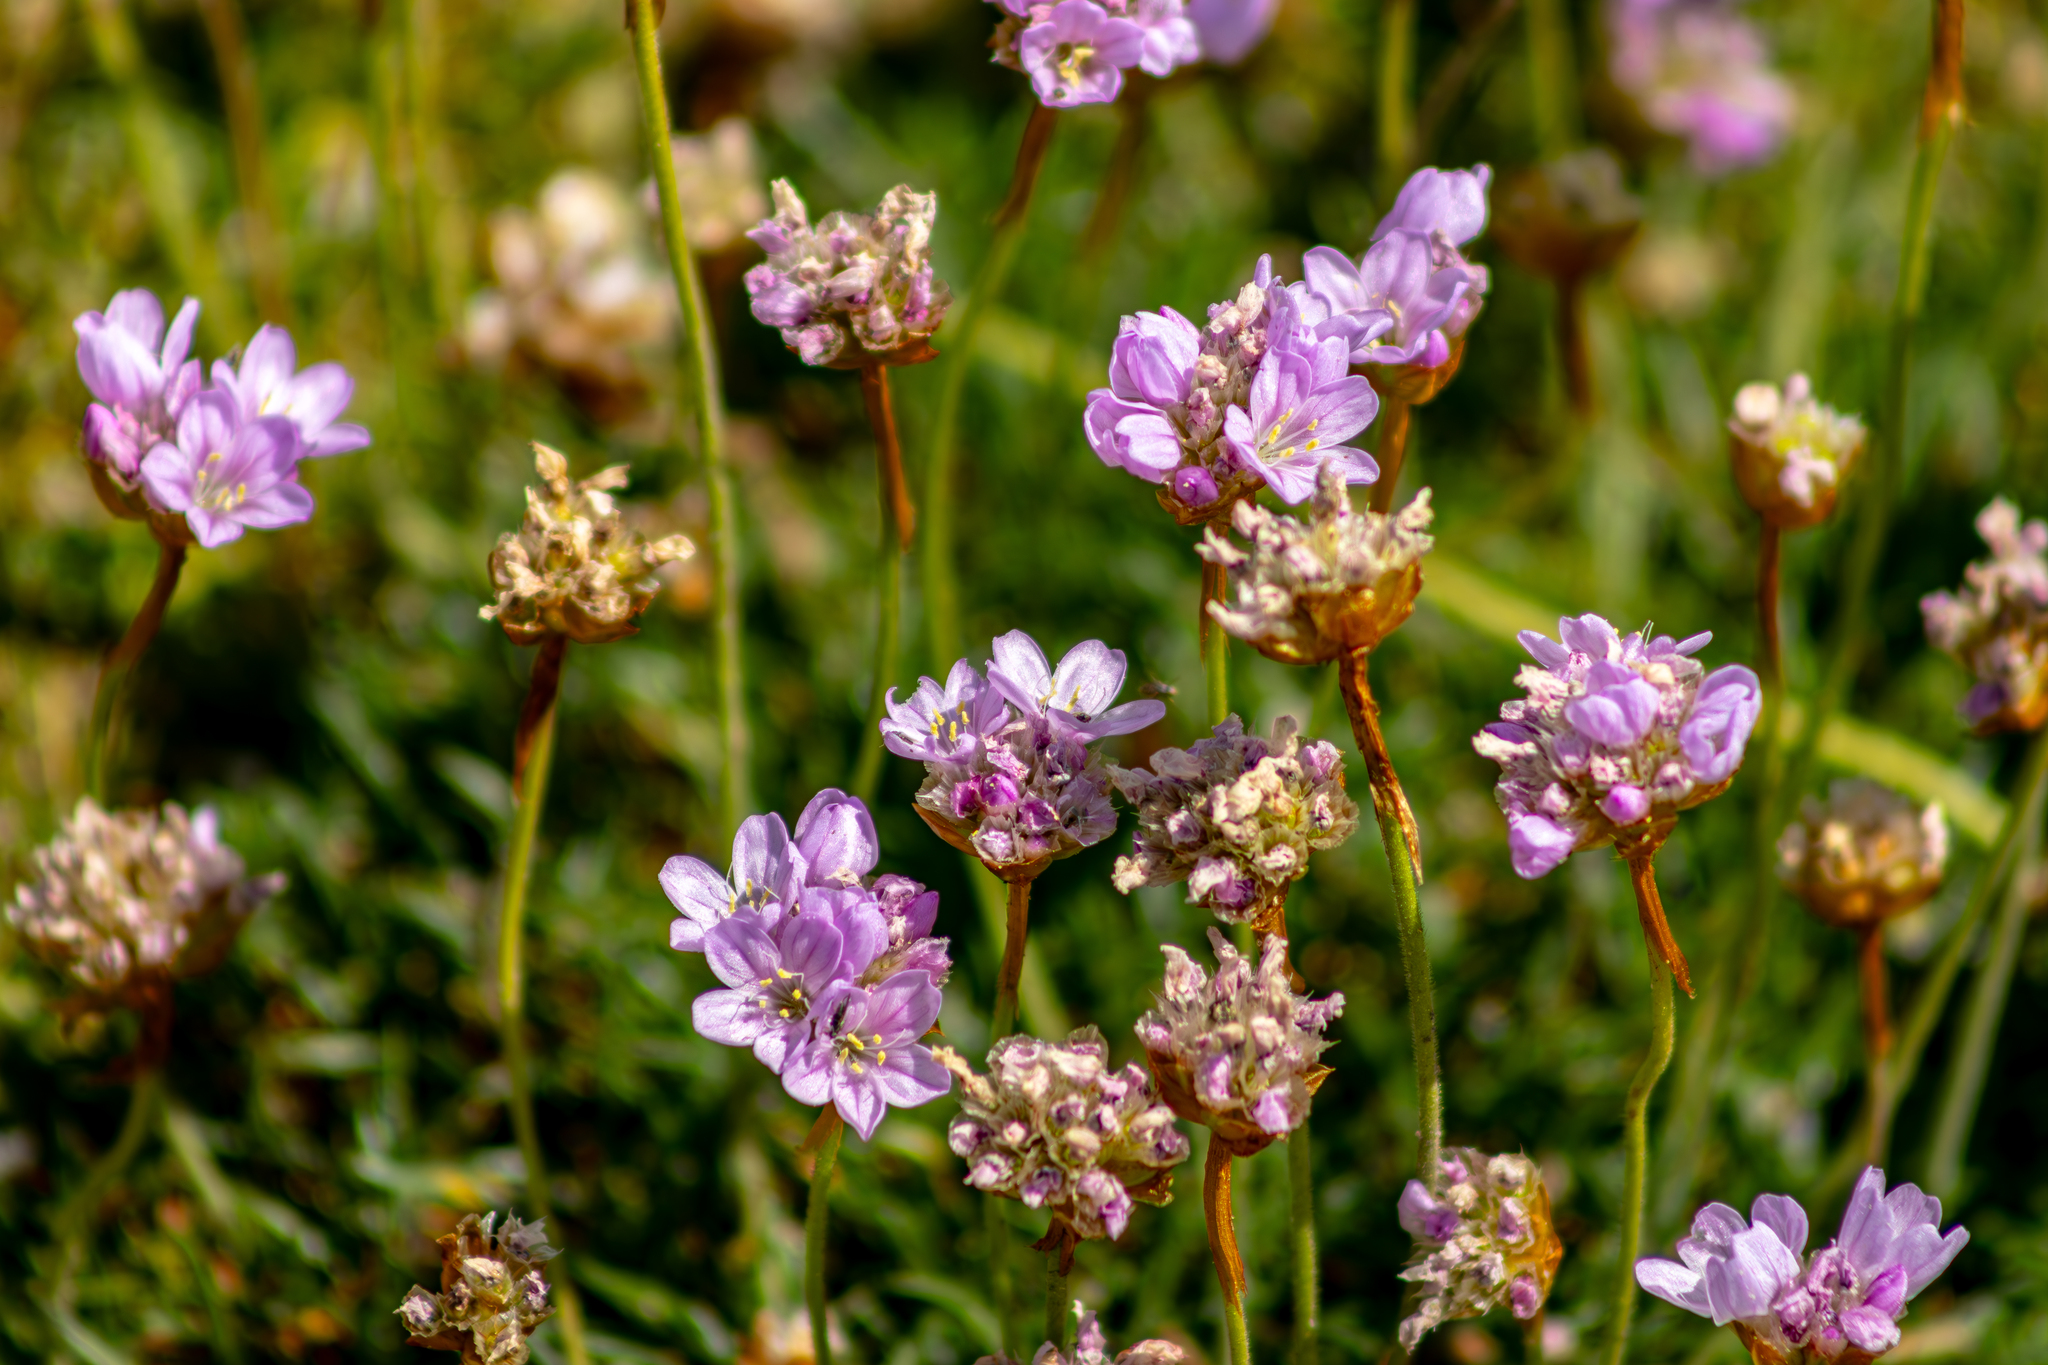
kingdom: Plantae
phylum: Tracheophyta
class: Magnoliopsida
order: Caryophyllales
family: Plumbaginaceae
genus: Armeria
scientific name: Armeria maritima
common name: Thrift
